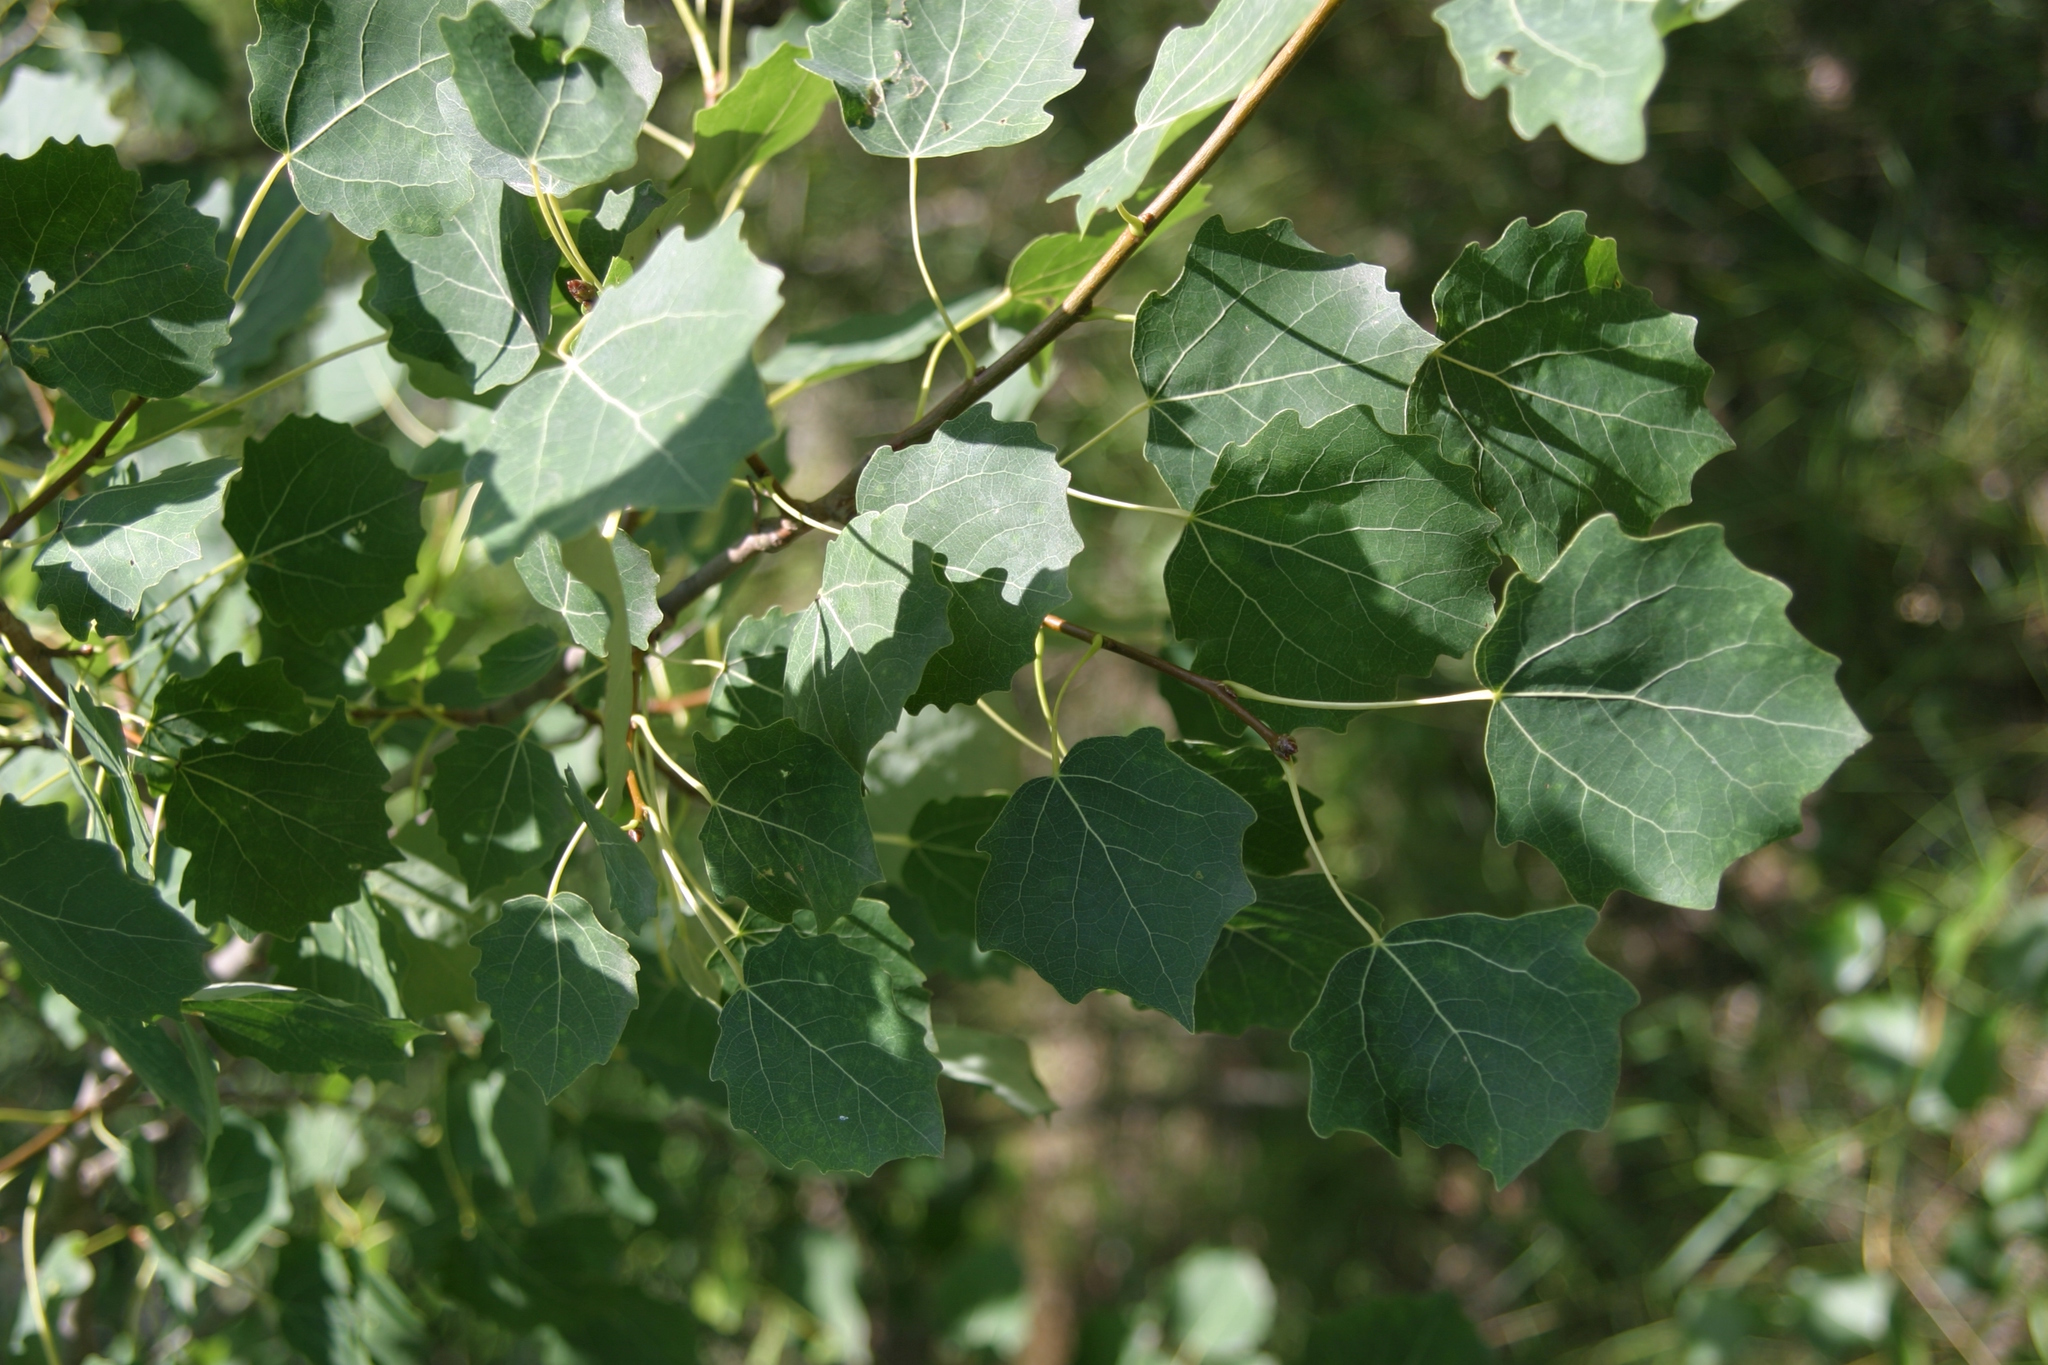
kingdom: Plantae
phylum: Tracheophyta
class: Magnoliopsida
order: Malpighiales
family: Salicaceae
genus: Populus
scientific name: Populus tremula
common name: European aspen
